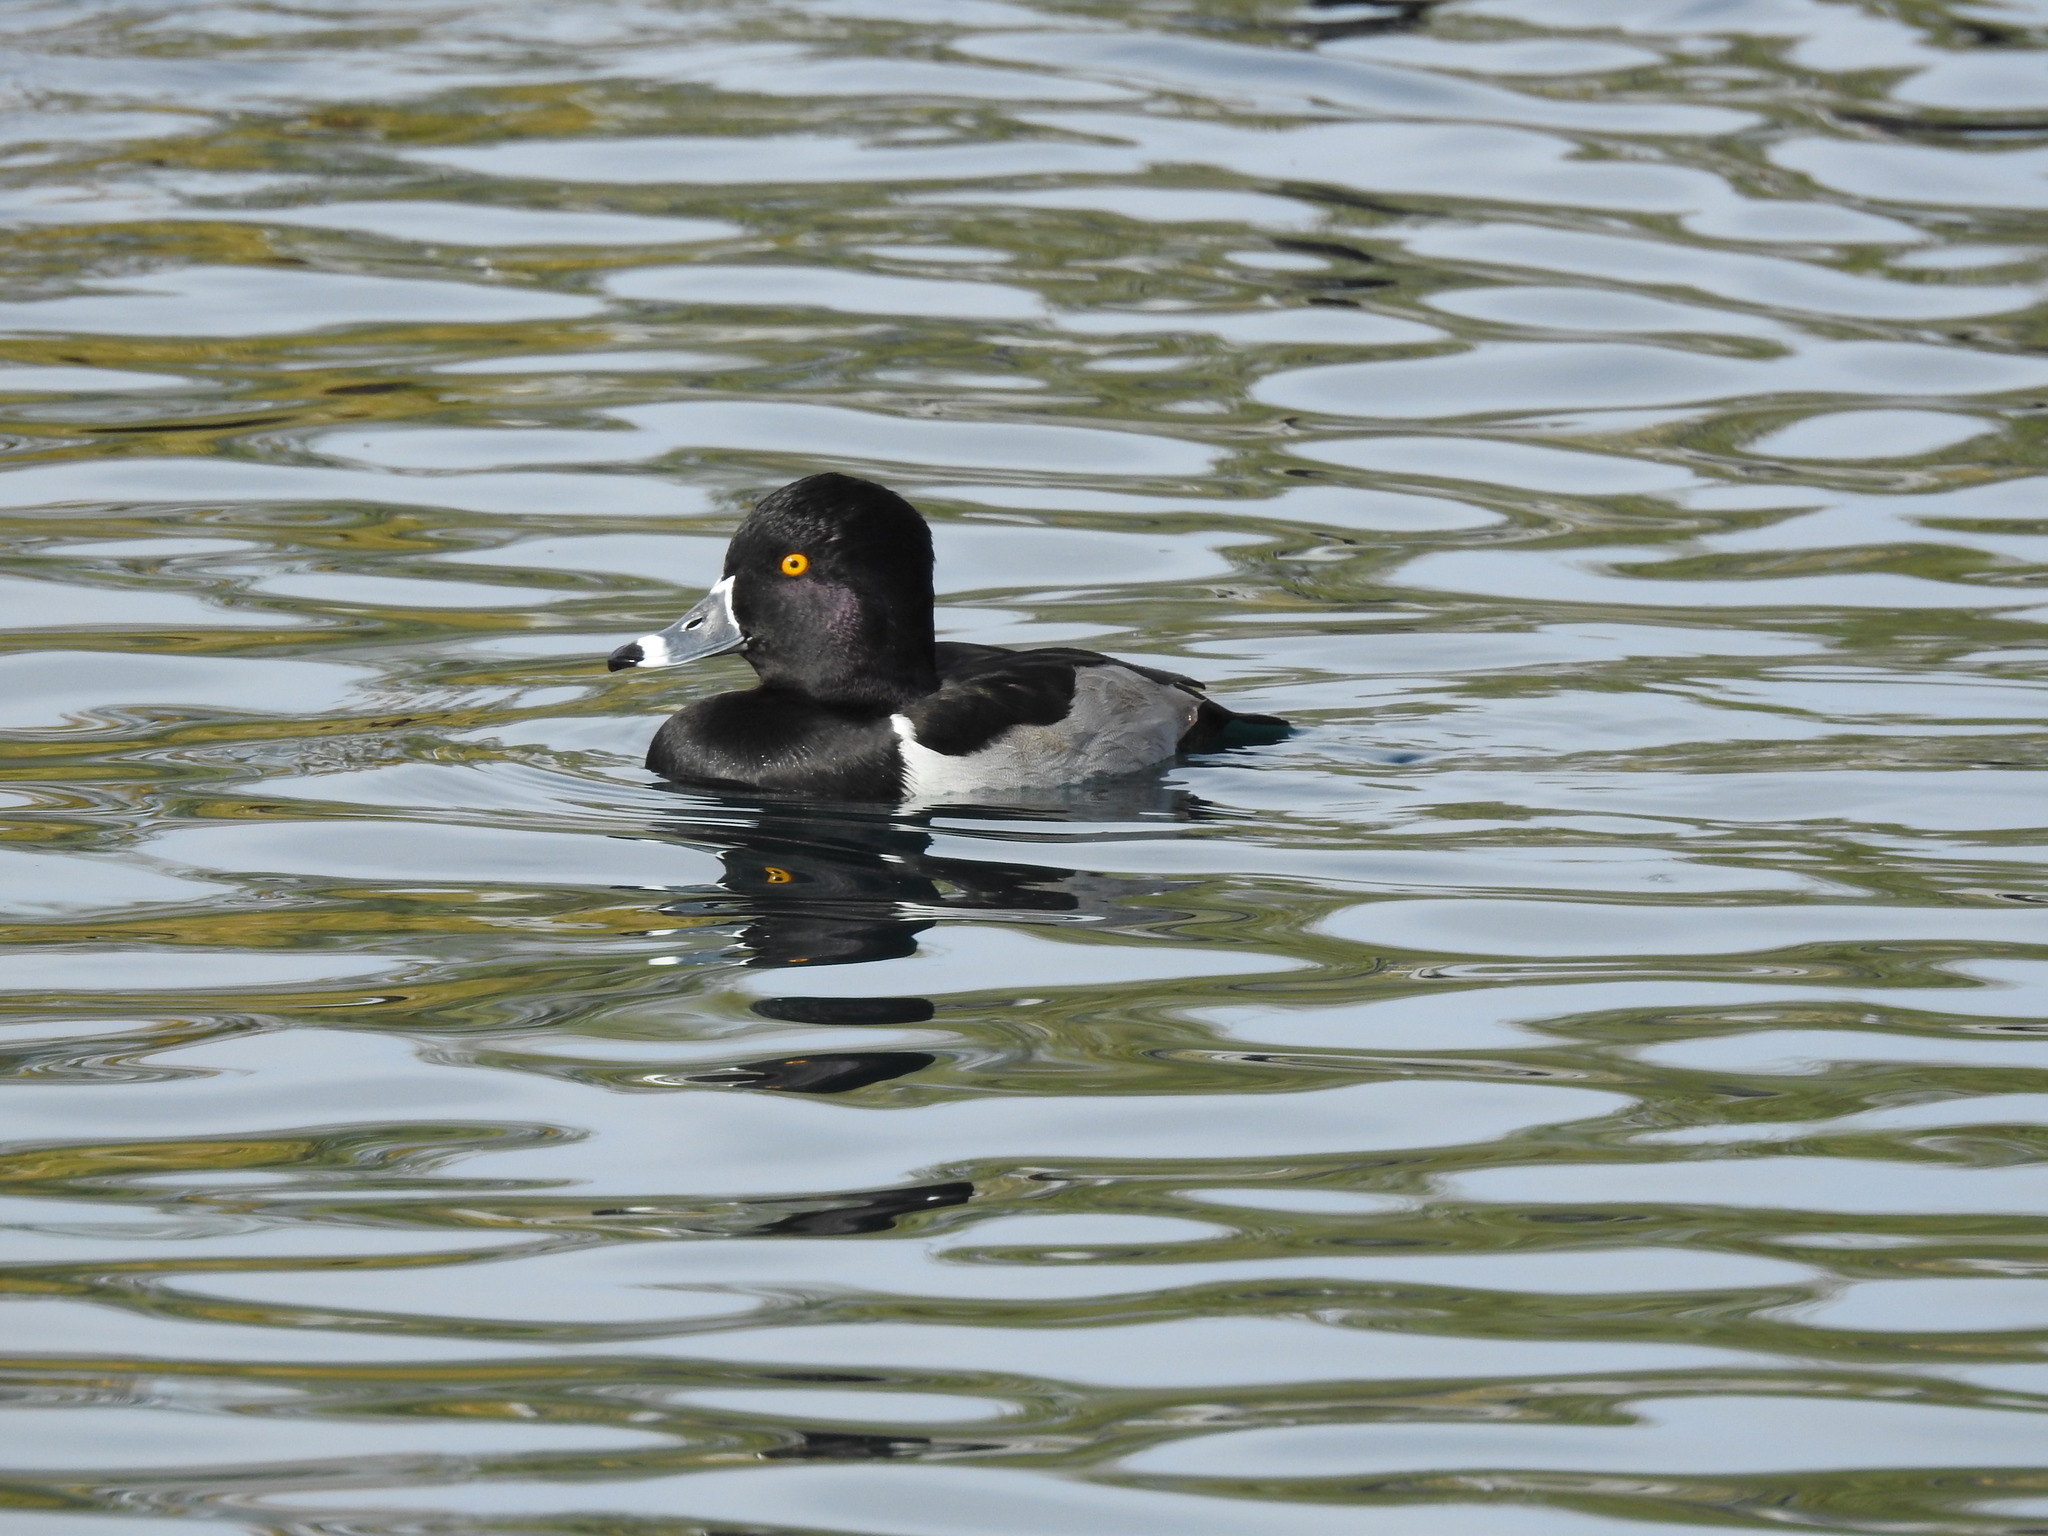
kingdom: Animalia
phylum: Chordata
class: Aves
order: Anseriformes
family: Anatidae
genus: Aythya
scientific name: Aythya collaris
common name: Ring-necked duck
